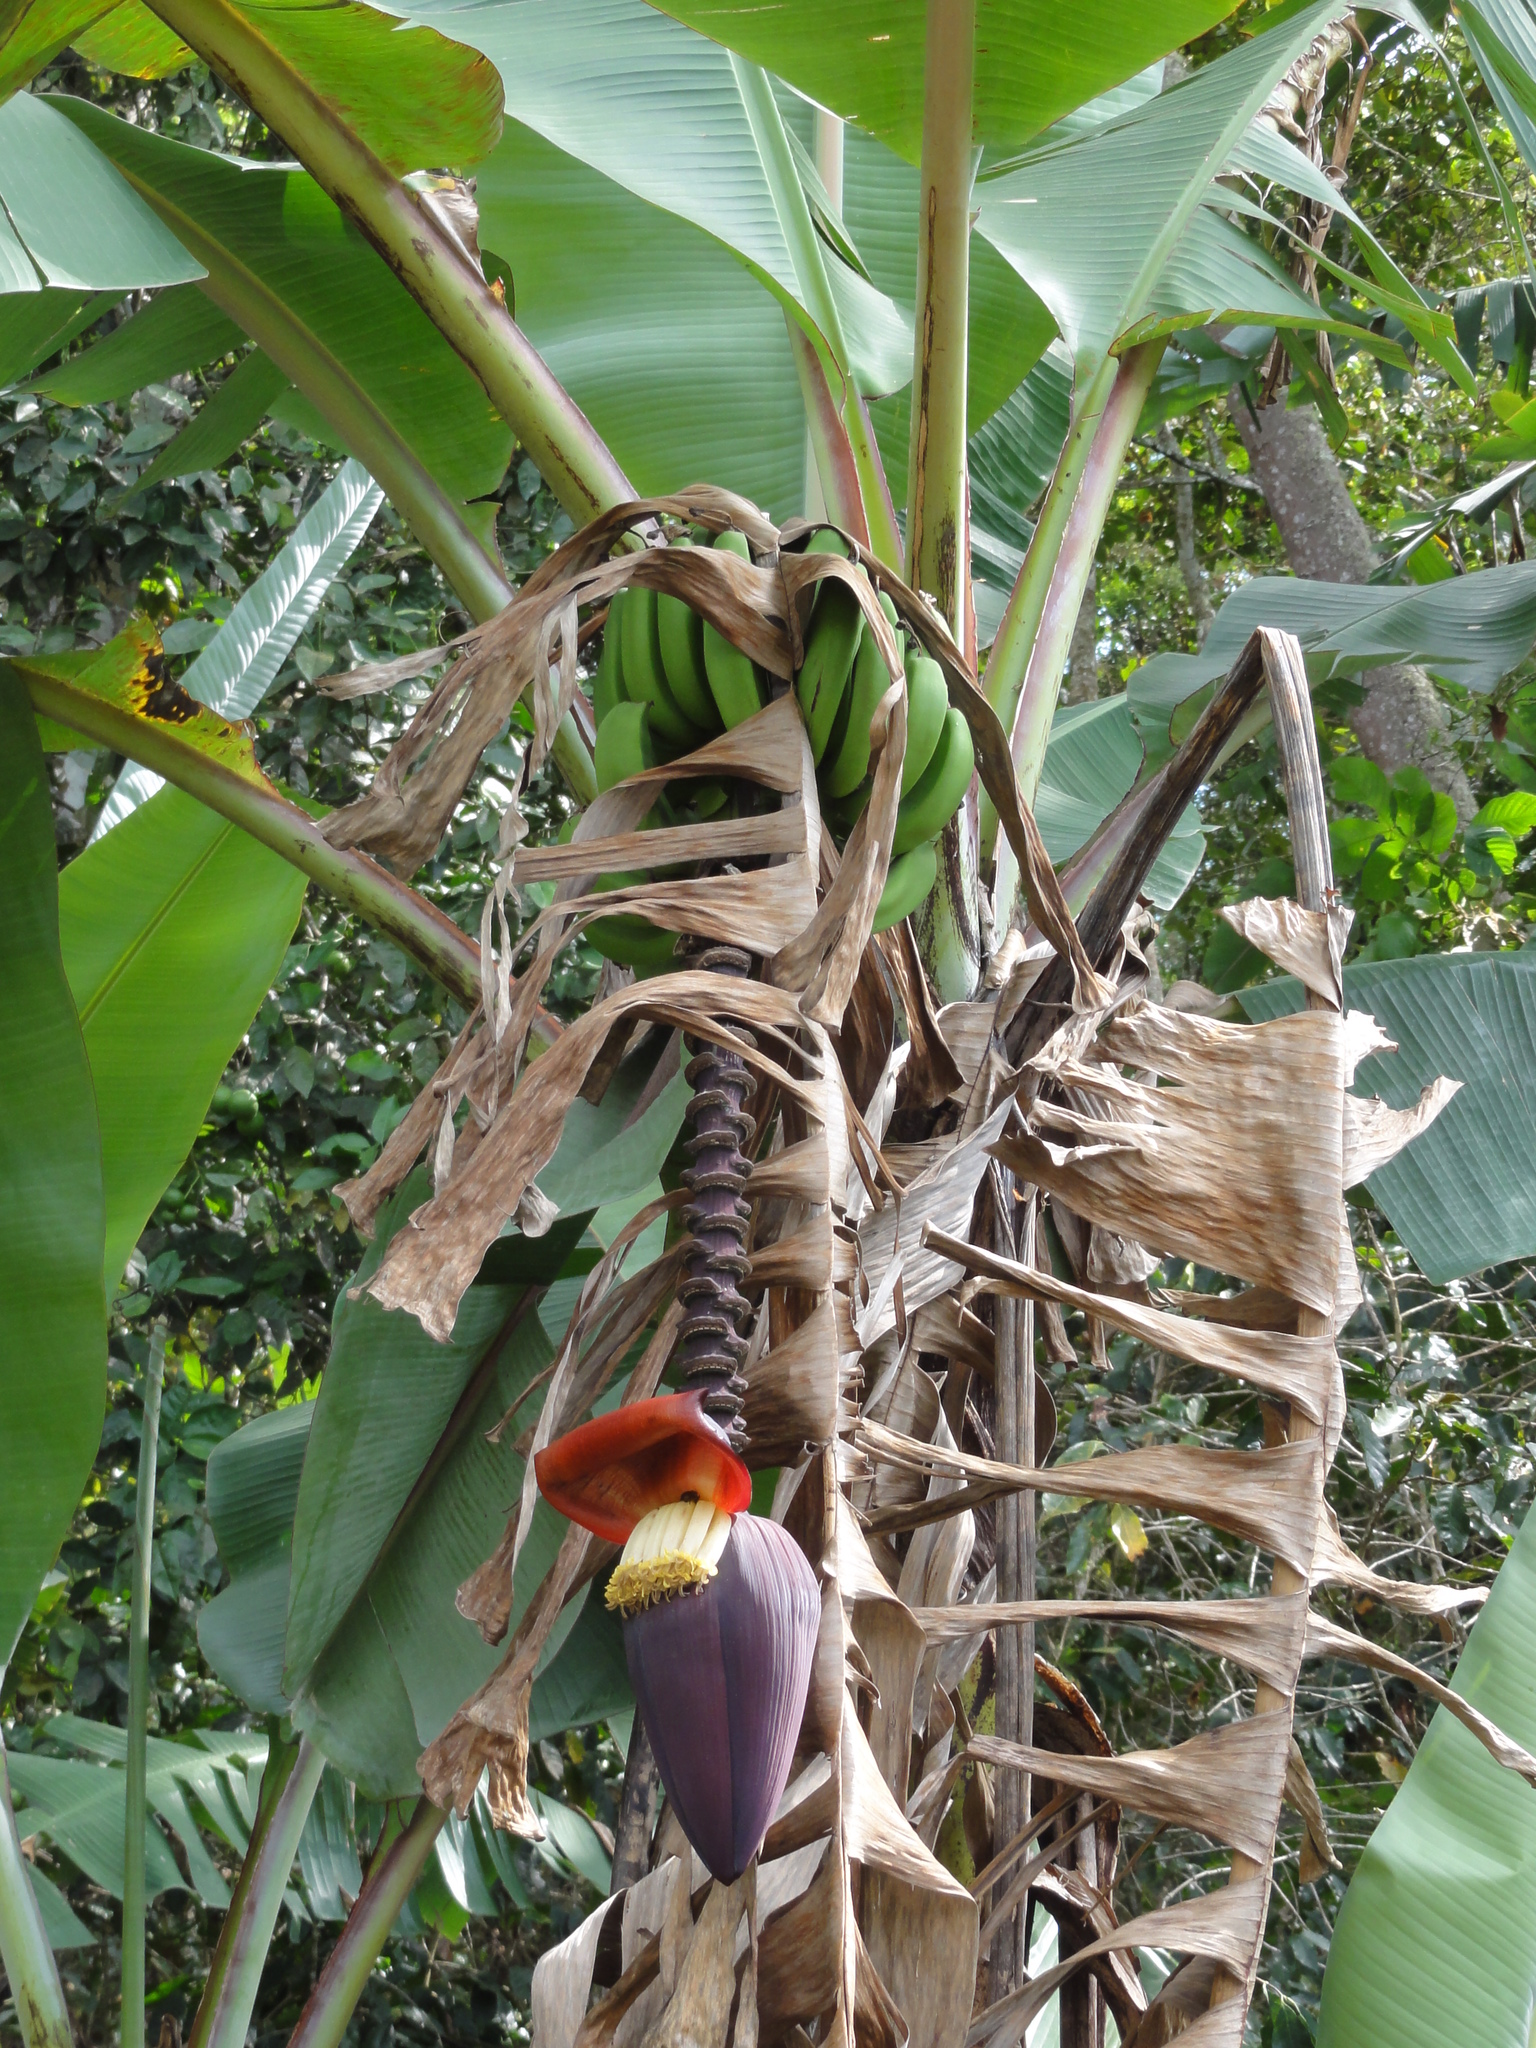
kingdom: Plantae
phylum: Tracheophyta
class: Liliopsida
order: Zingiberales
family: Musaceae
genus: Musa
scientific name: Musa acuminata
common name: Edible banana
